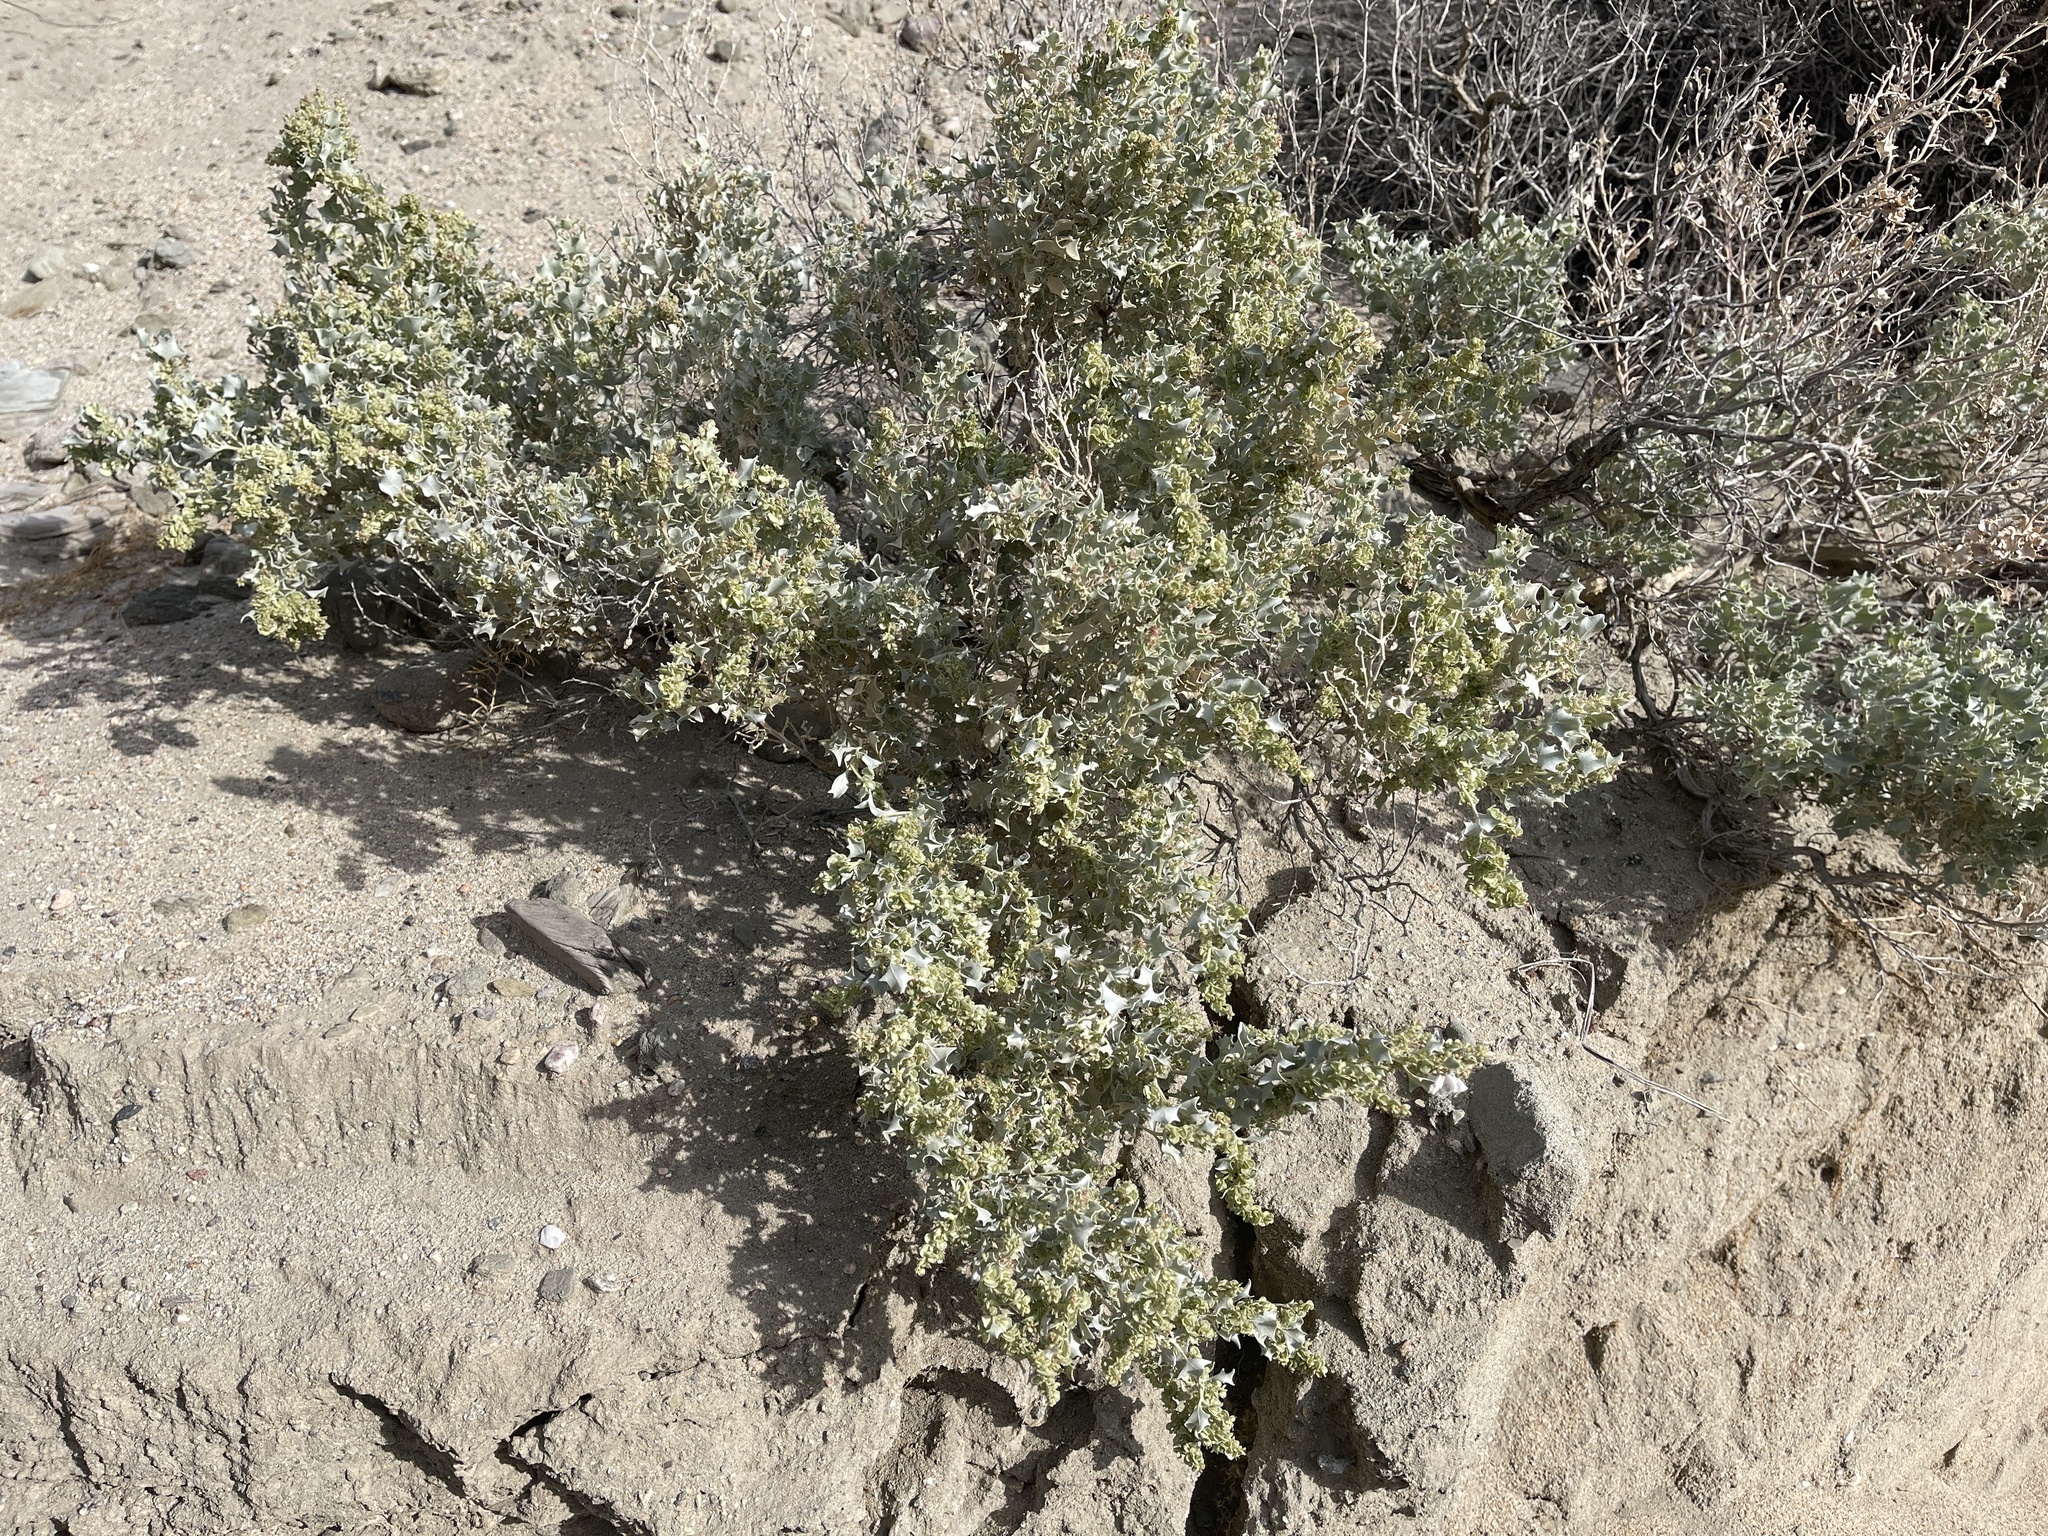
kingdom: Plantae
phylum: Tracheophyta
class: Magnoliopsida
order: Caryophyllales
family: Amaranthaceae
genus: Atriplex
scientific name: Atriplex hymenelytra
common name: Desert-holly
